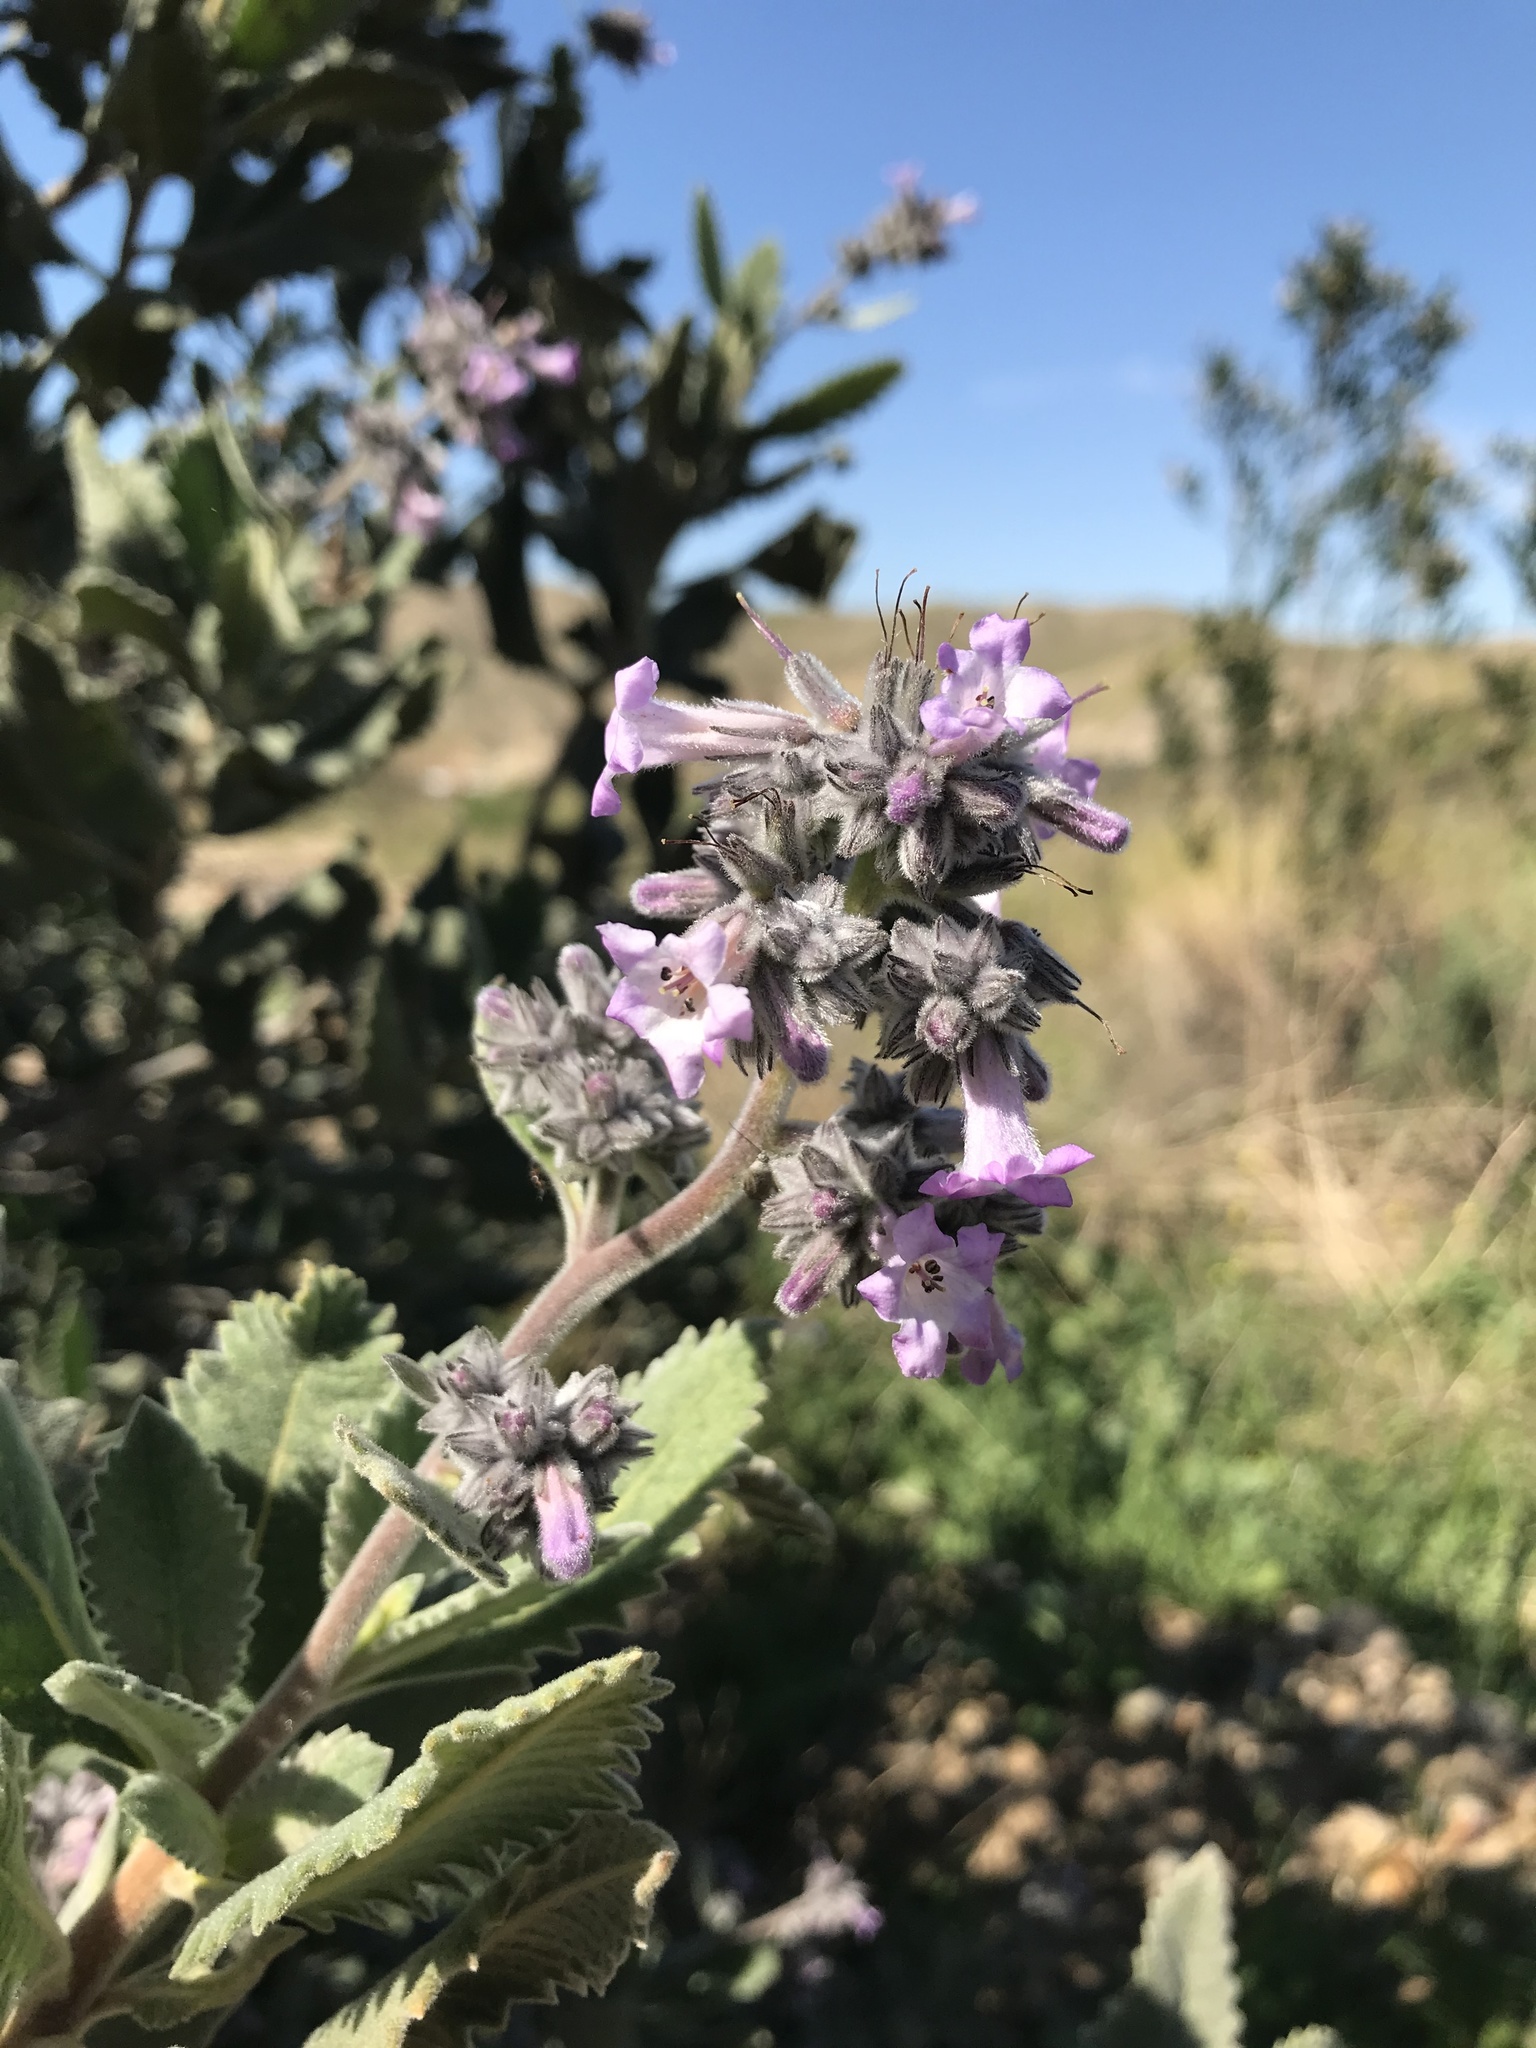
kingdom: Plantae
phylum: Tracheophyta
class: Magnoliopsida
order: Boraginales
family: Namaceae
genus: Eriodictyon
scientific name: Eriodictyon crassifolium
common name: Thick-leaf yerba-santa
